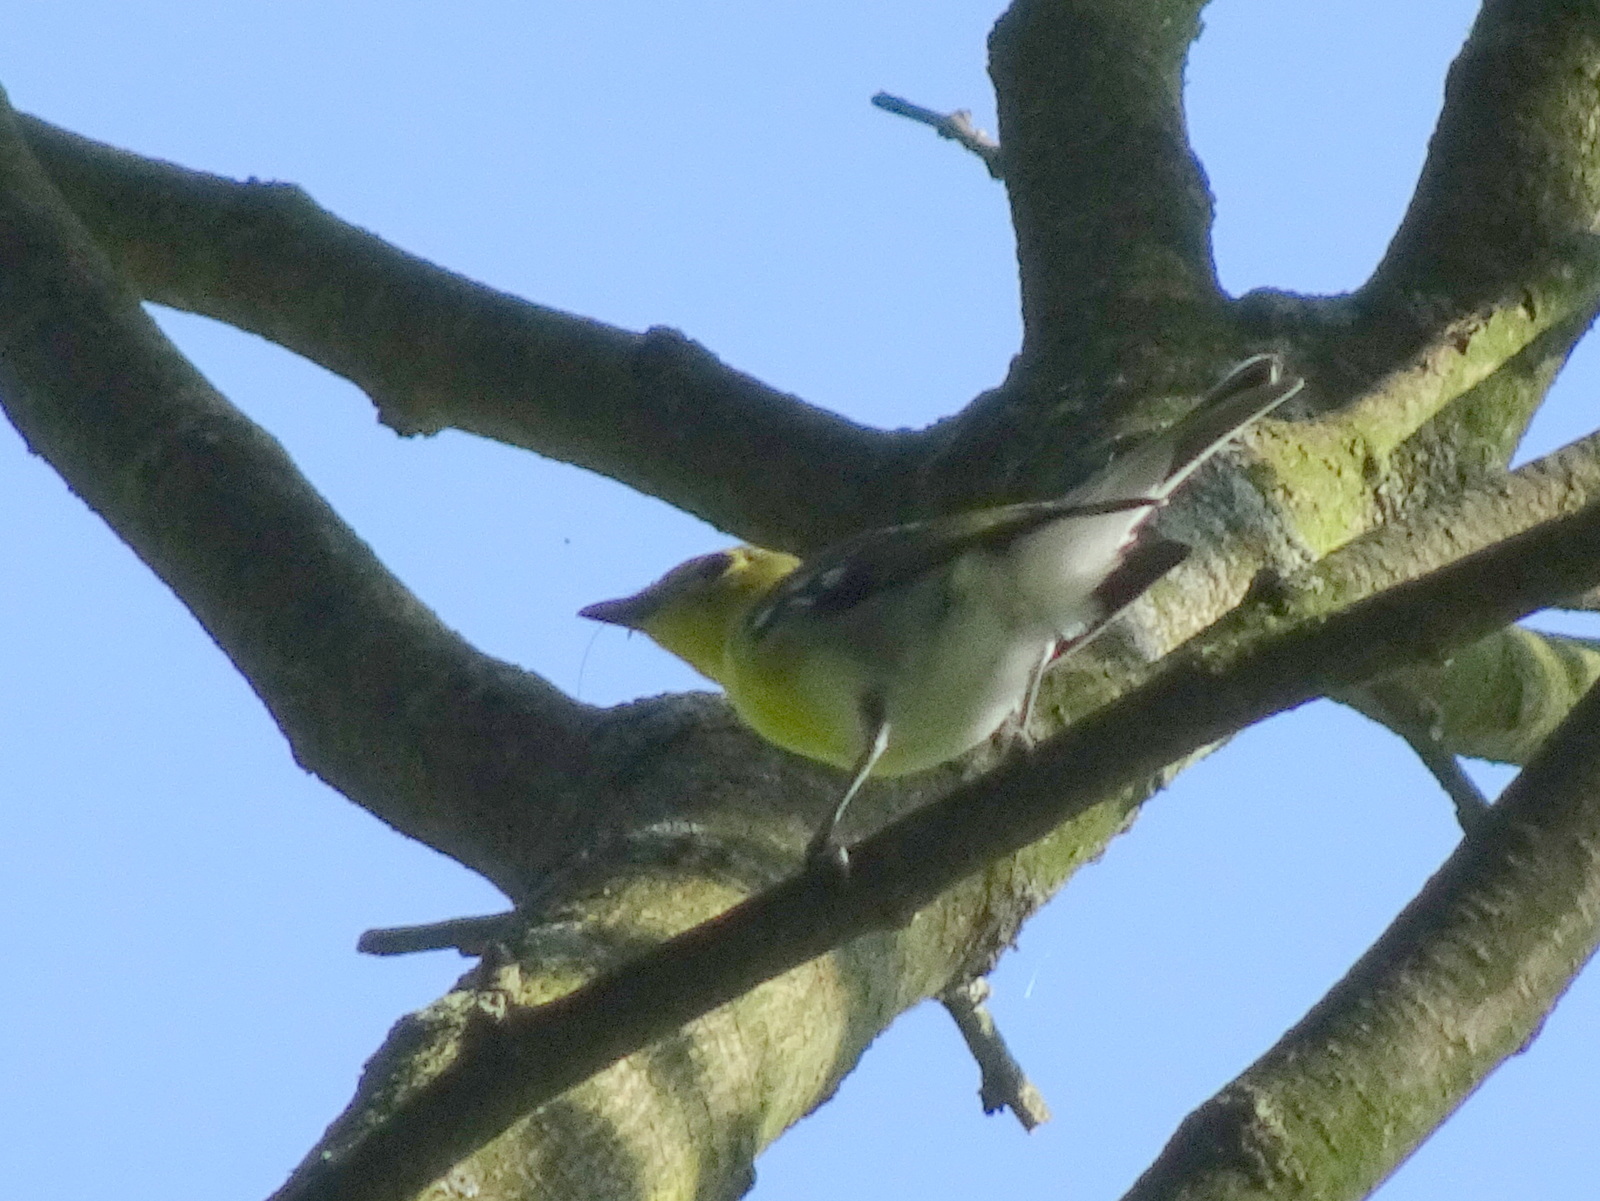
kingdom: Animalia
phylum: Chordata
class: Aves
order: Passeriformes
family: Vireonidae
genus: Vireo
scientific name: Vireo flavifrons
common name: Yellow-throated vireo
